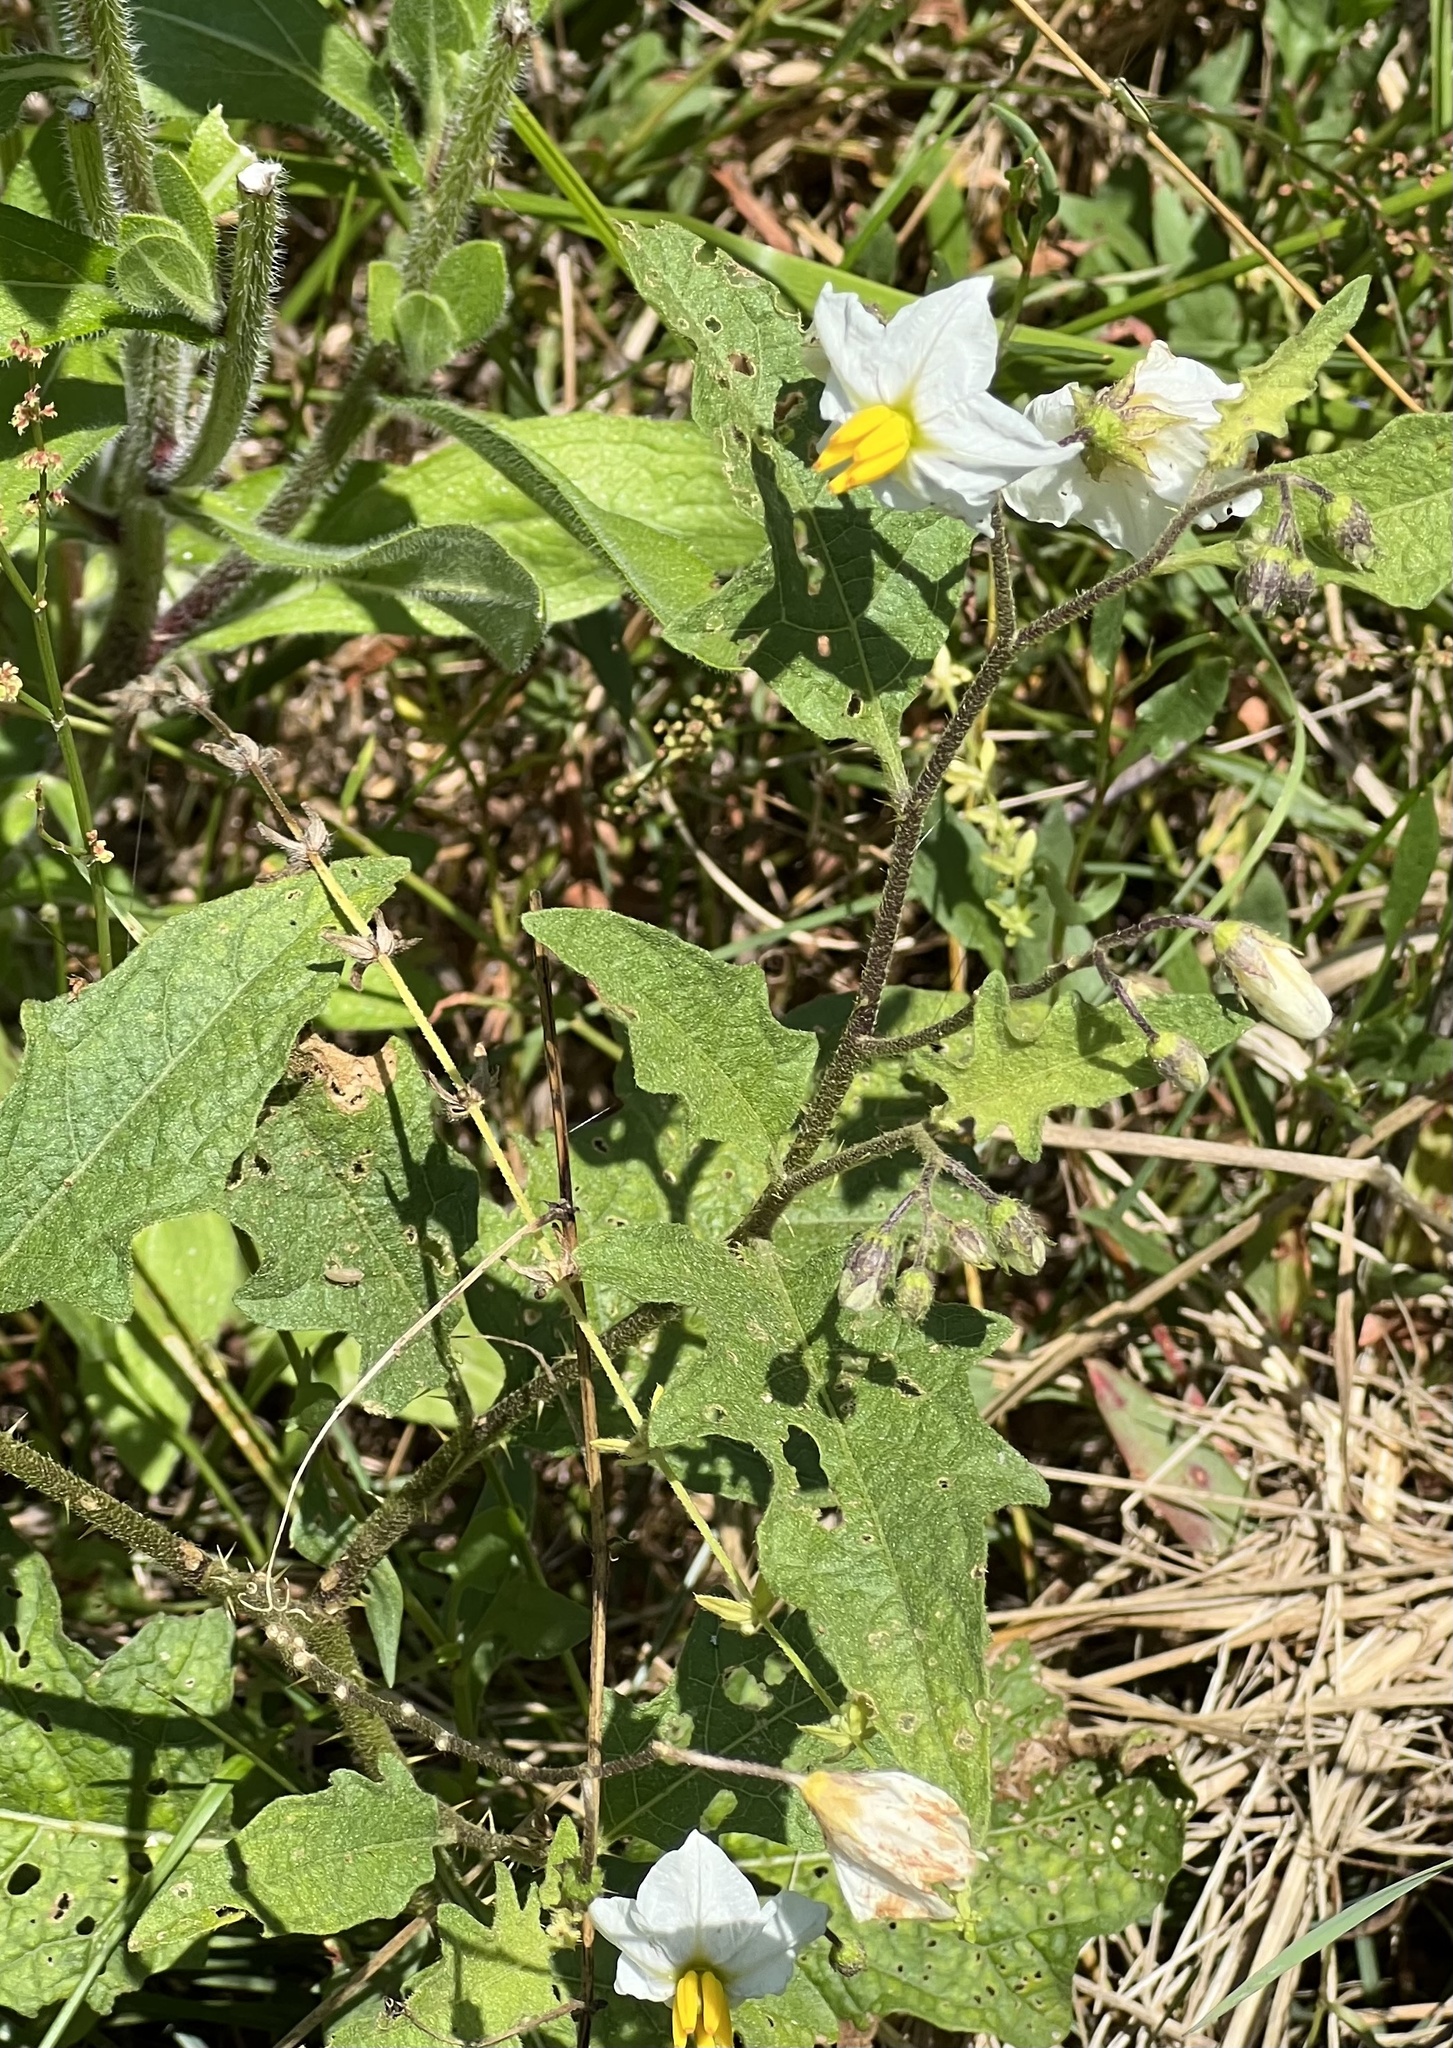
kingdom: Plantae
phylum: Tracheophyta
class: Magnoliopsida
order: Solanales
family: Solanaceae
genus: Solanum
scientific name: Solanum carolinense
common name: Horse-nettle
